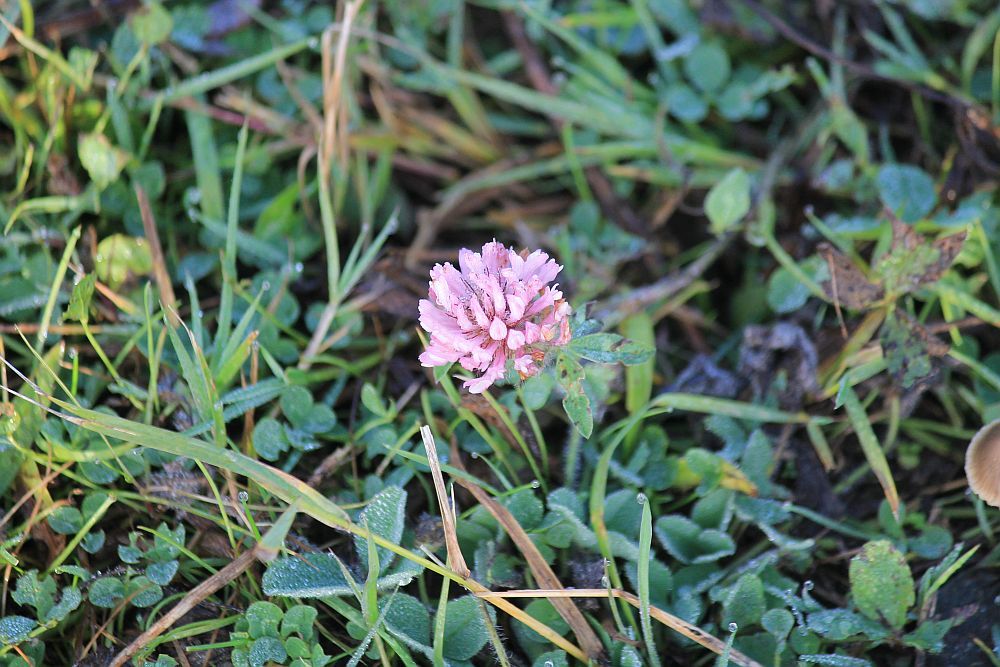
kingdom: Plantae
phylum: Tracheophyta
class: Magnoliopsida
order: Fabales
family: Fabaceae
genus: Trifolium
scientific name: Trifolium pratense
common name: Red clover
